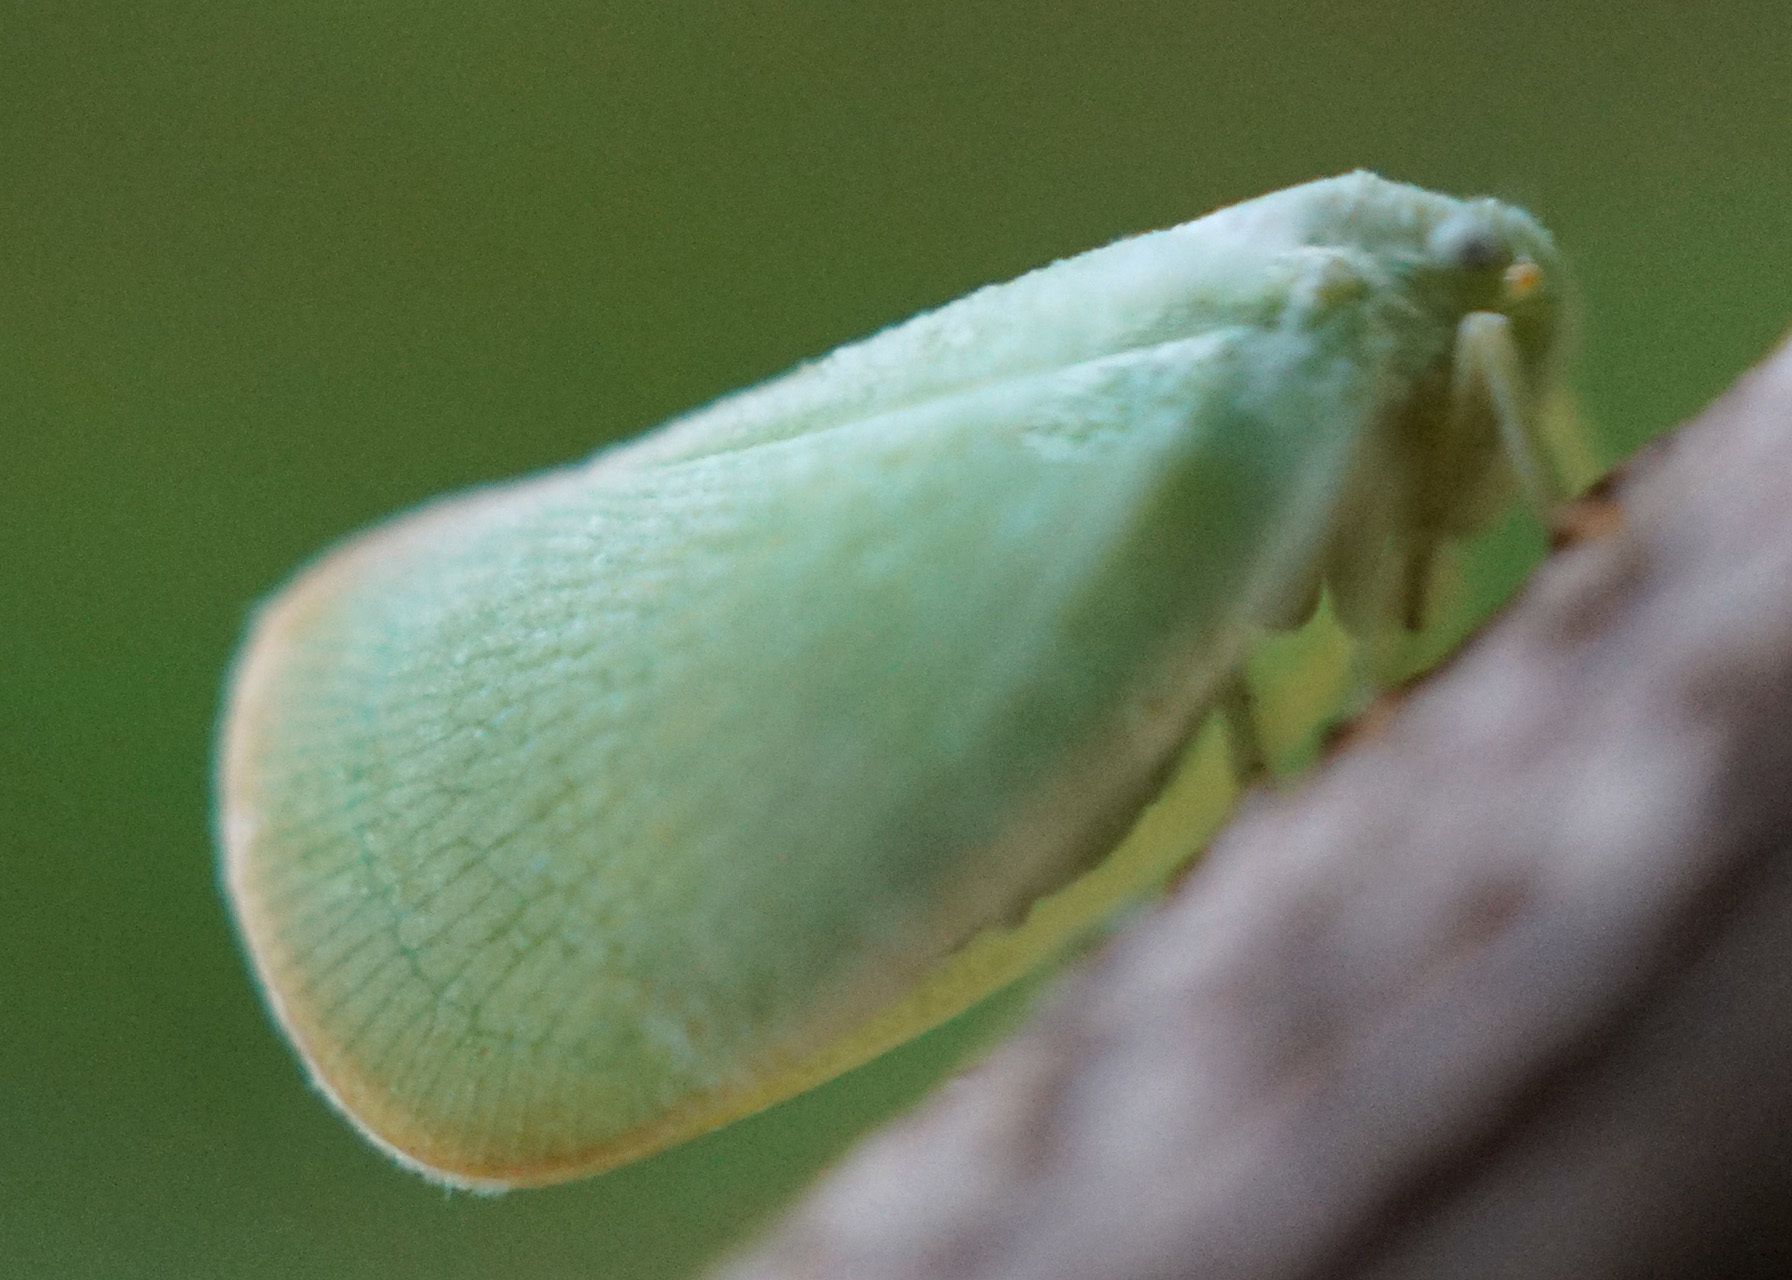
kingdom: Animalia
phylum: Arthropoda
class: Insecta
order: Hemiptera
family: Flatidae
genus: Ormenoides
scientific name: Ormenoides venusta
